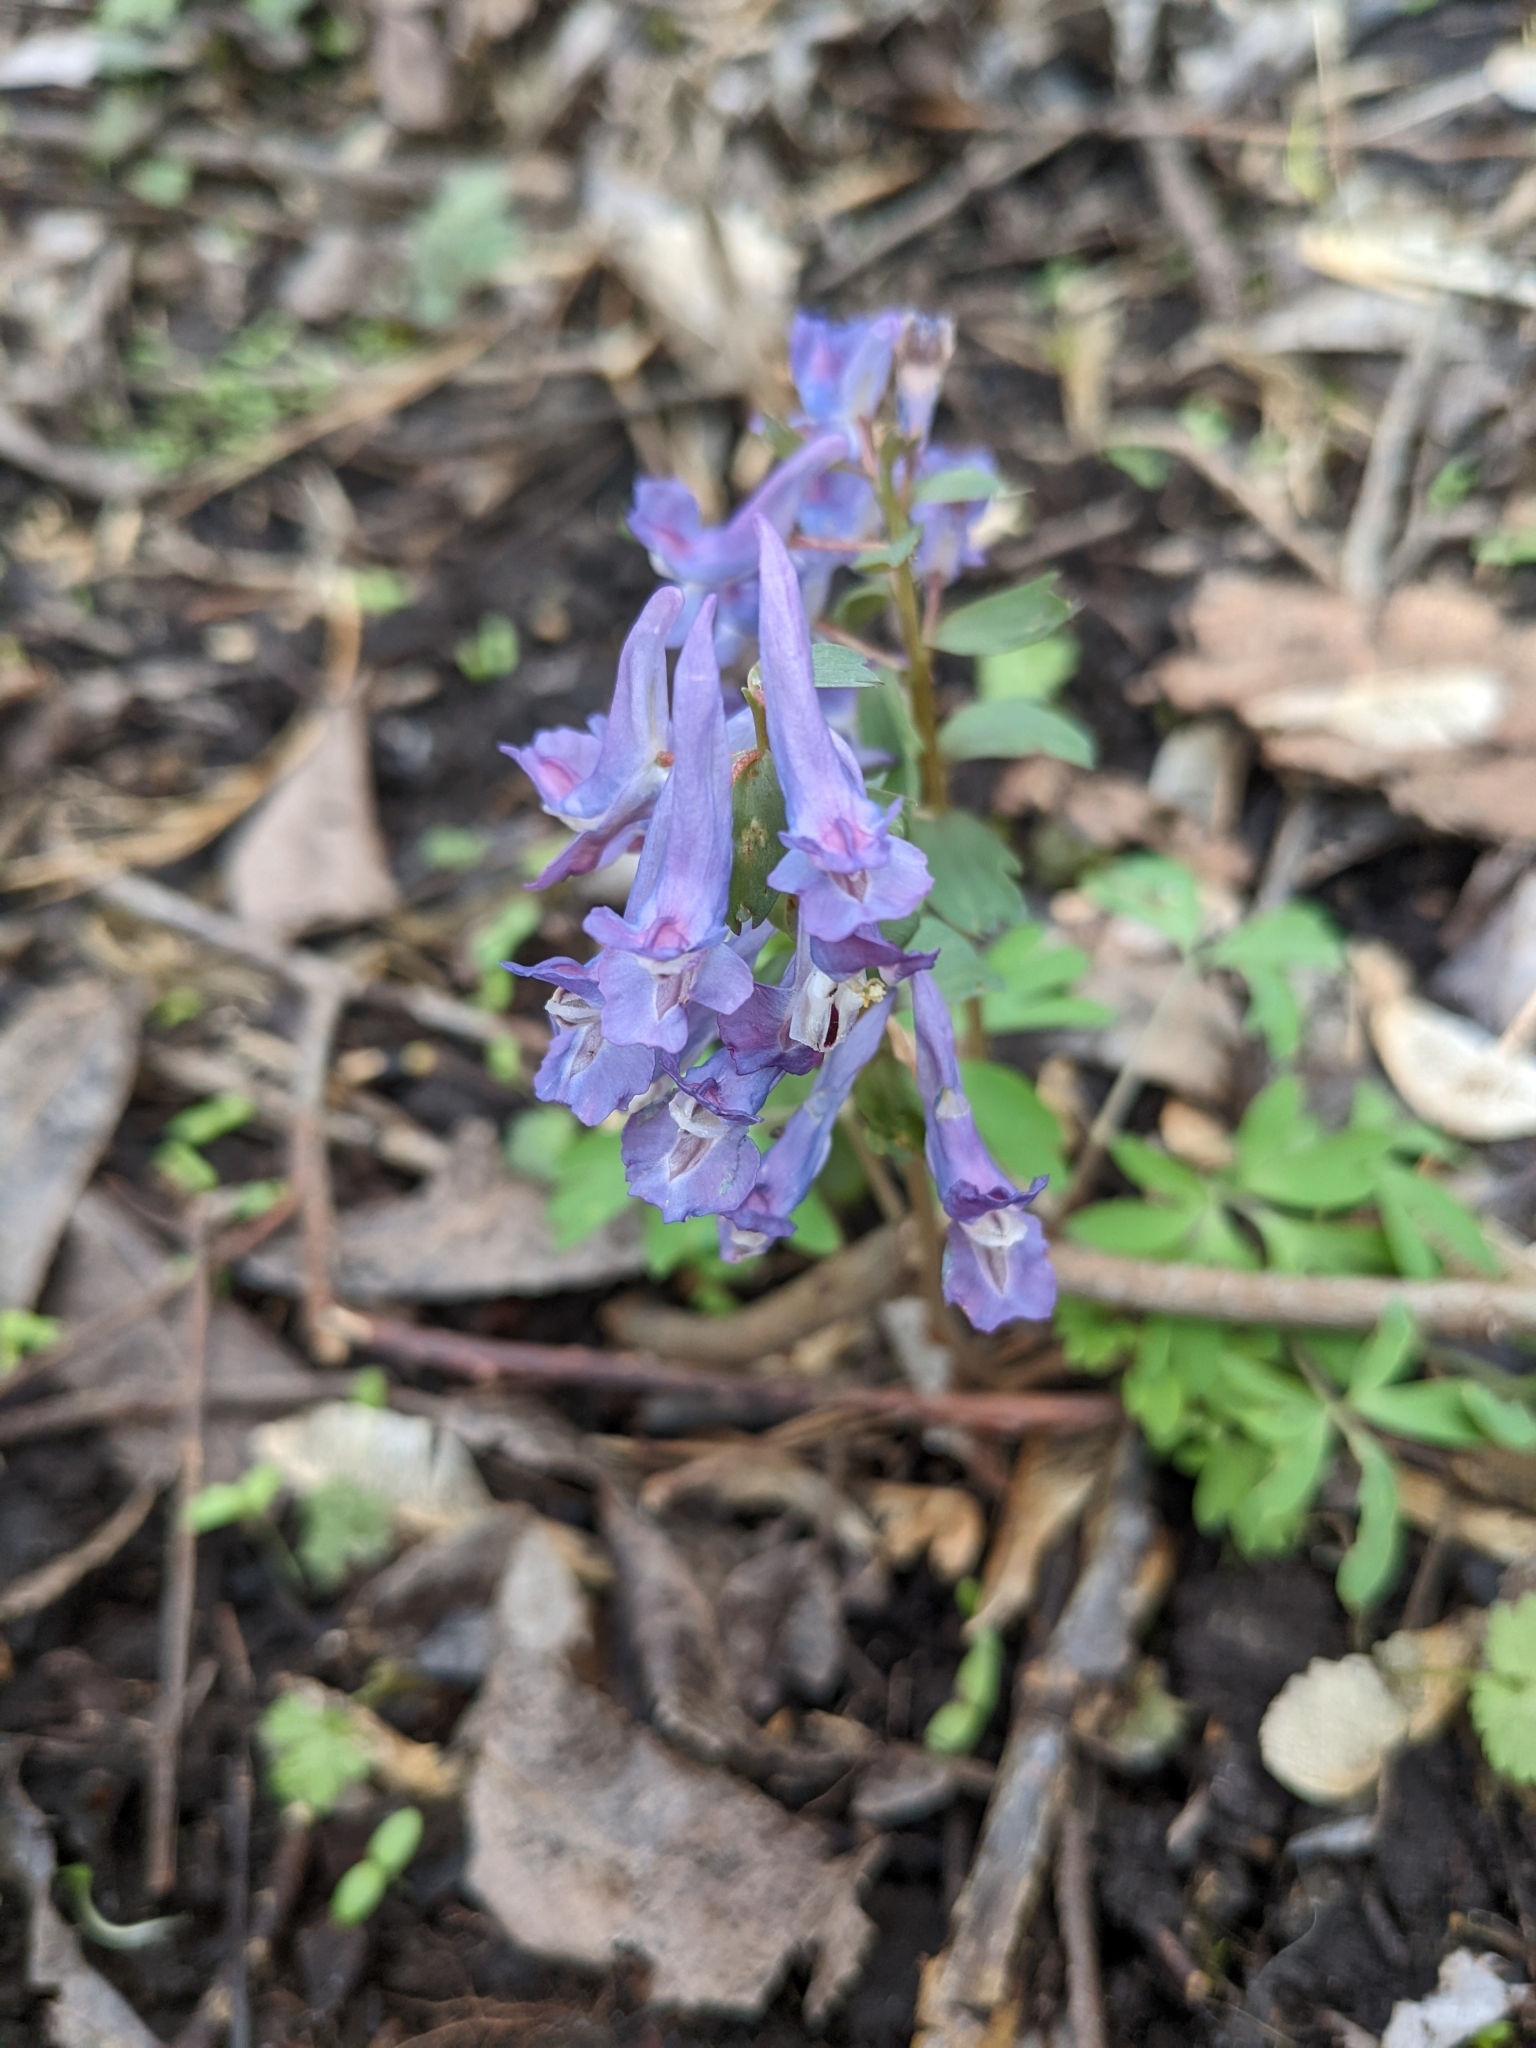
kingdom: Plantae
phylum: Tracheophyta
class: Magnoliopsida
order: Ranunculales
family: Papaveraceae
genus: Corydalis
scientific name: Corydalis solida
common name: Bird-in-a-bush
